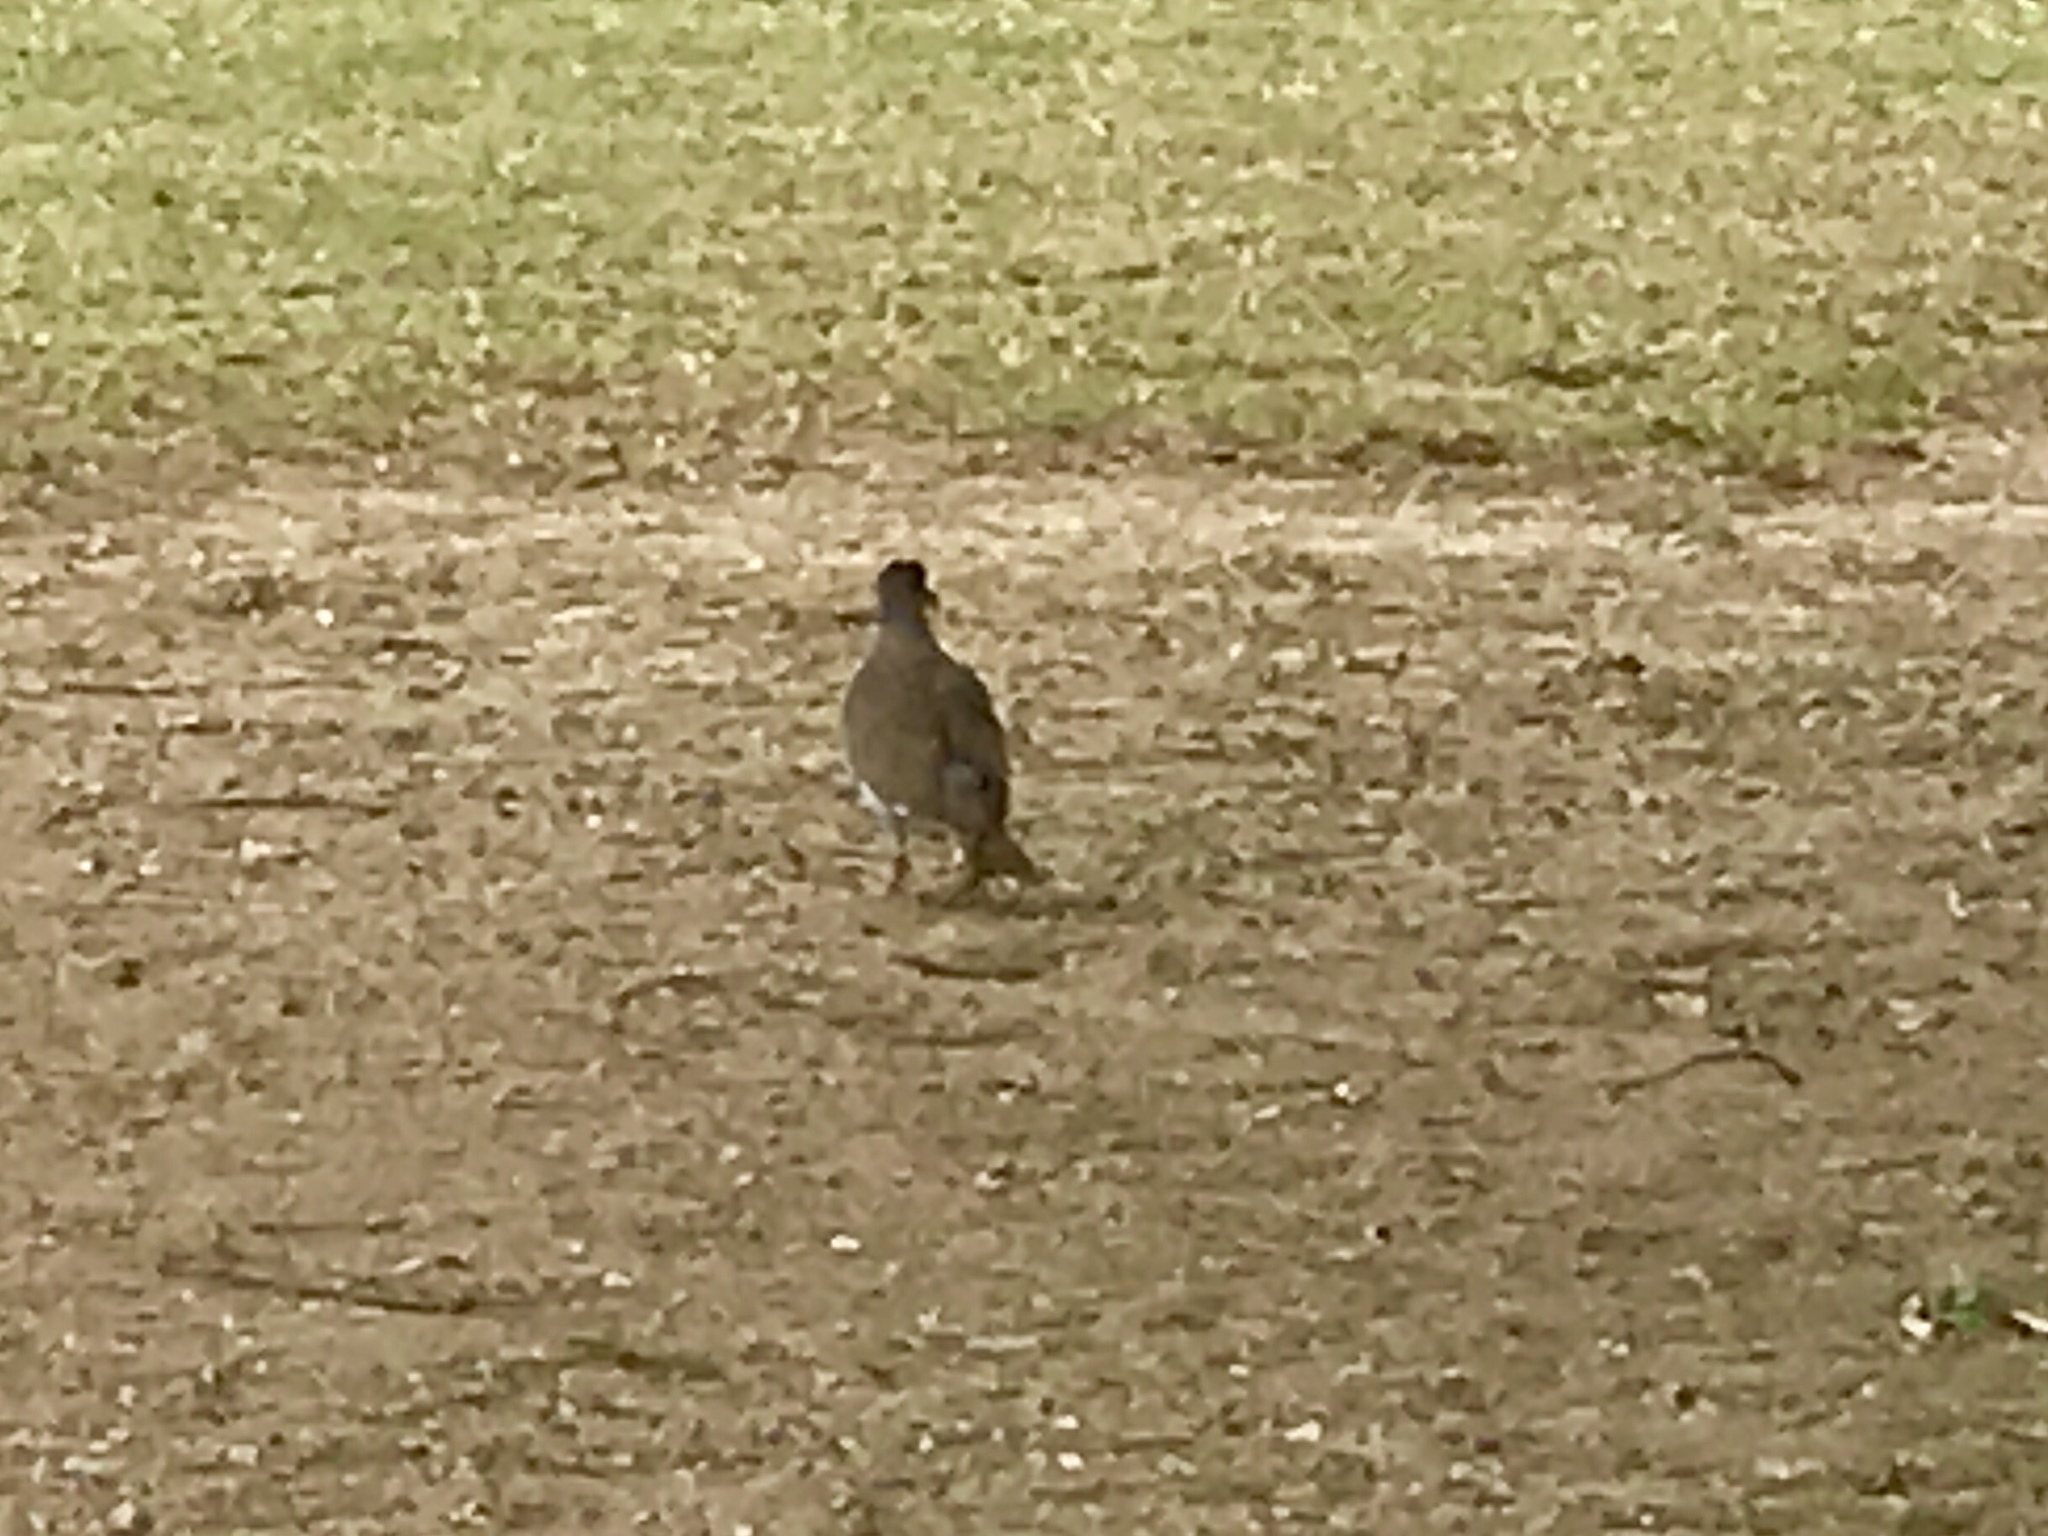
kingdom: Animalia
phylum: Chordata
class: Aves
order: Columbiformes
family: Columbidae
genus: Zenaida
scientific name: Zenaida asiatica
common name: White-winged dove
